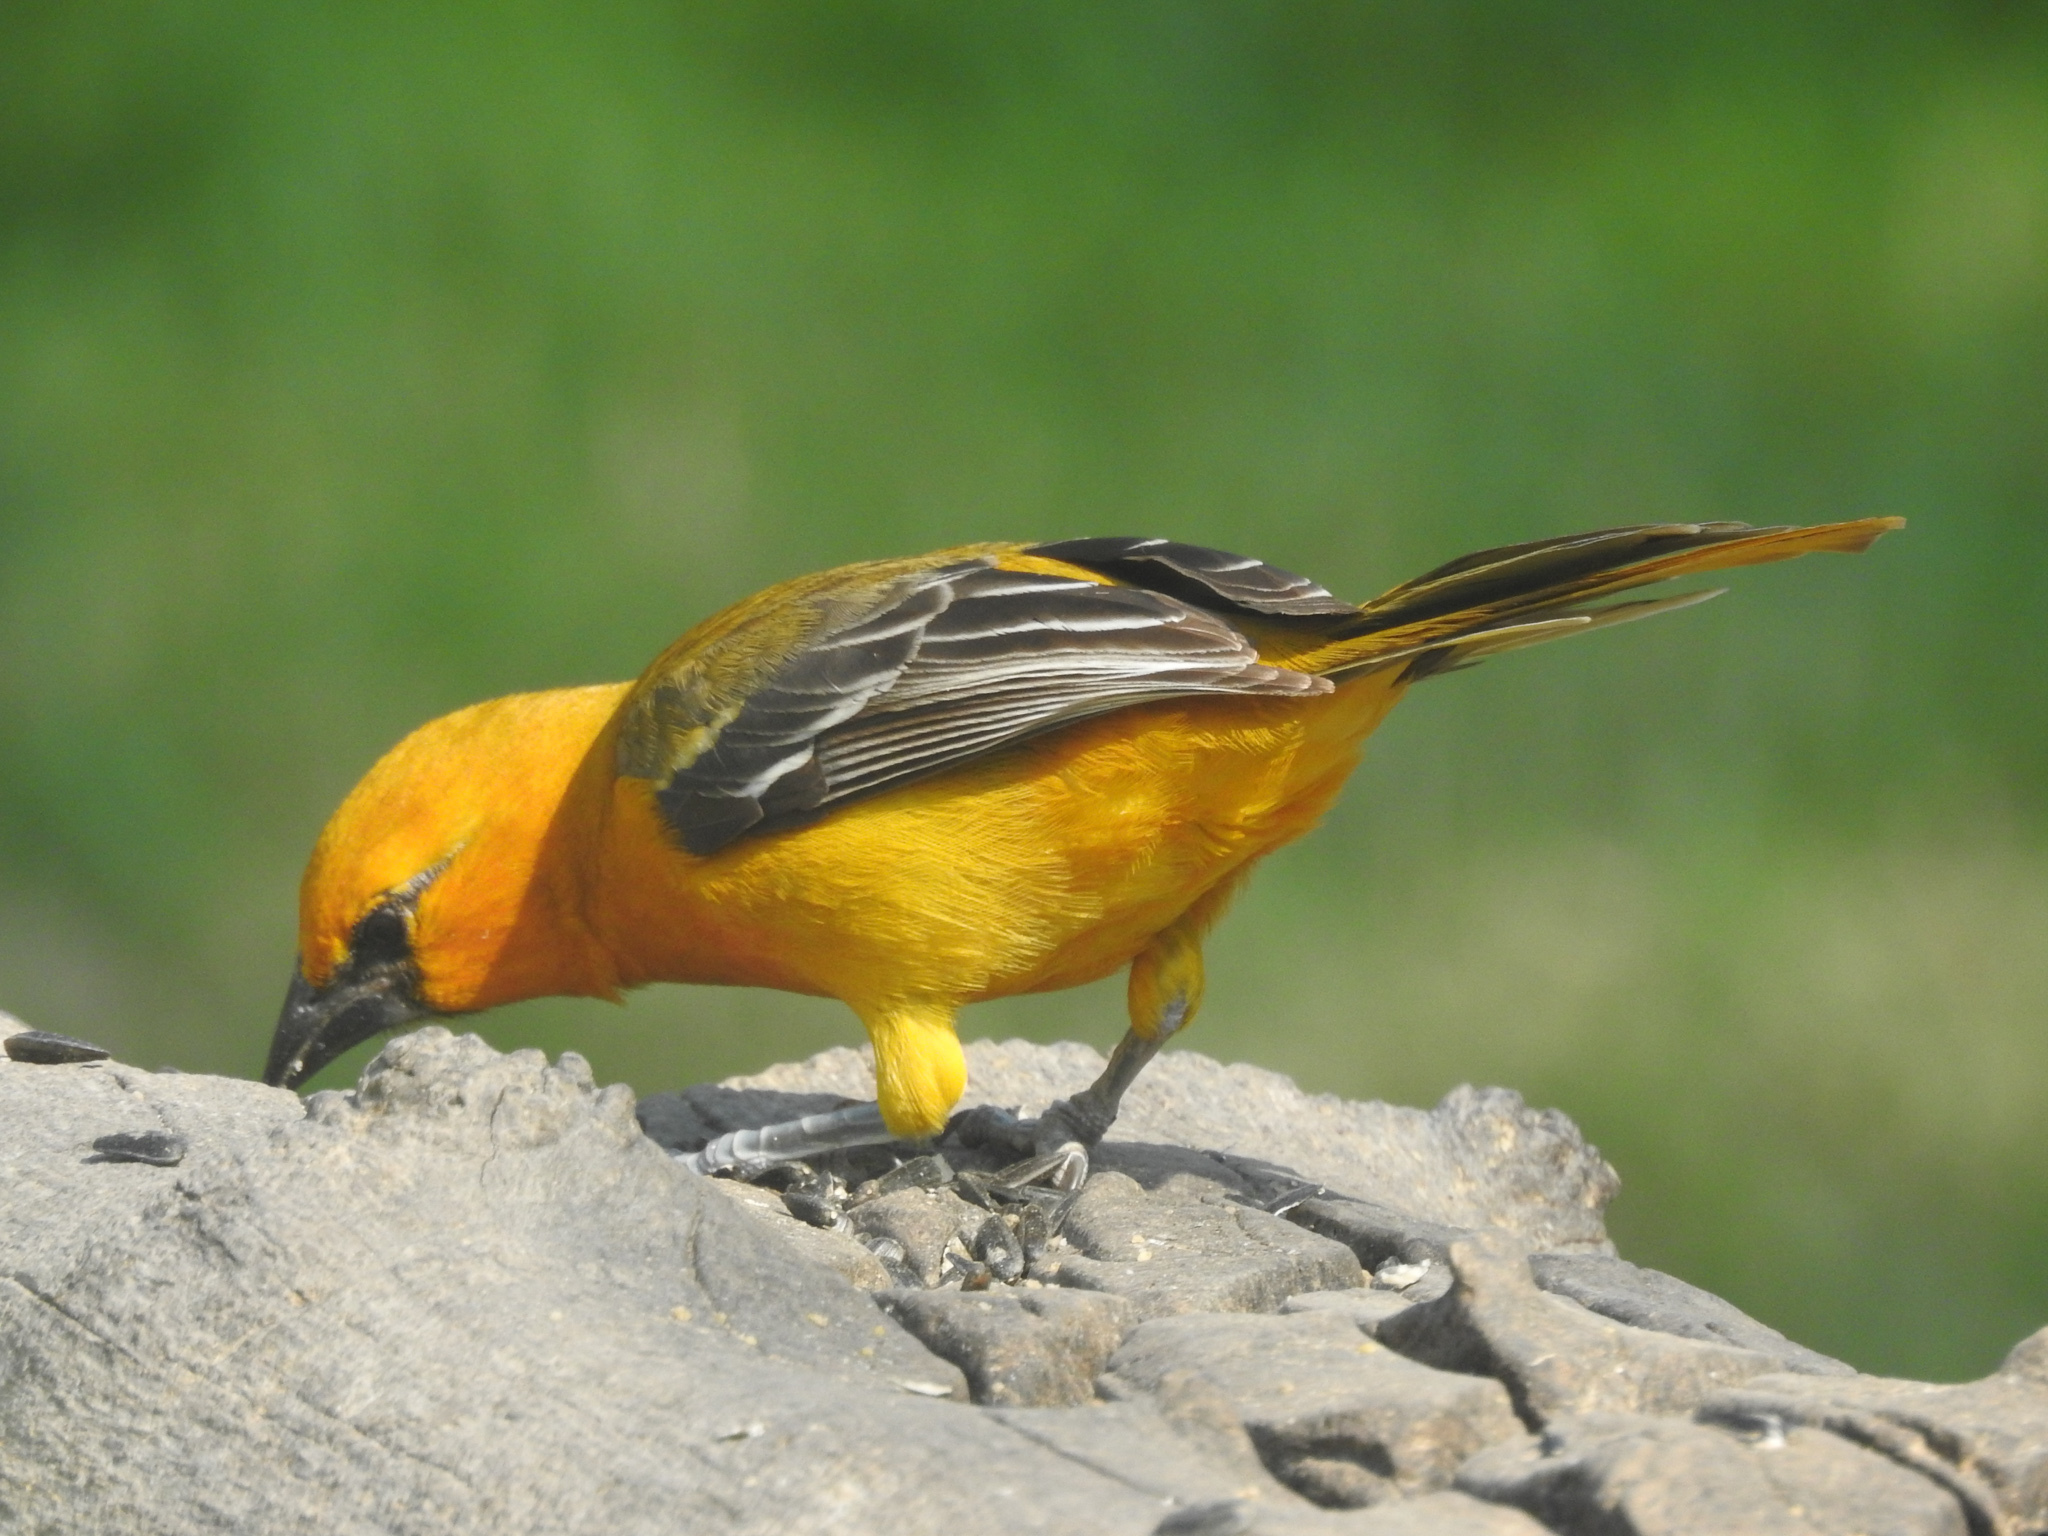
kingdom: Animalia
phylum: Chordata
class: Aves
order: Passeriformes
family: Icteridae
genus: Icterus
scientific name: Icterus gularis
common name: Altamira oriole
